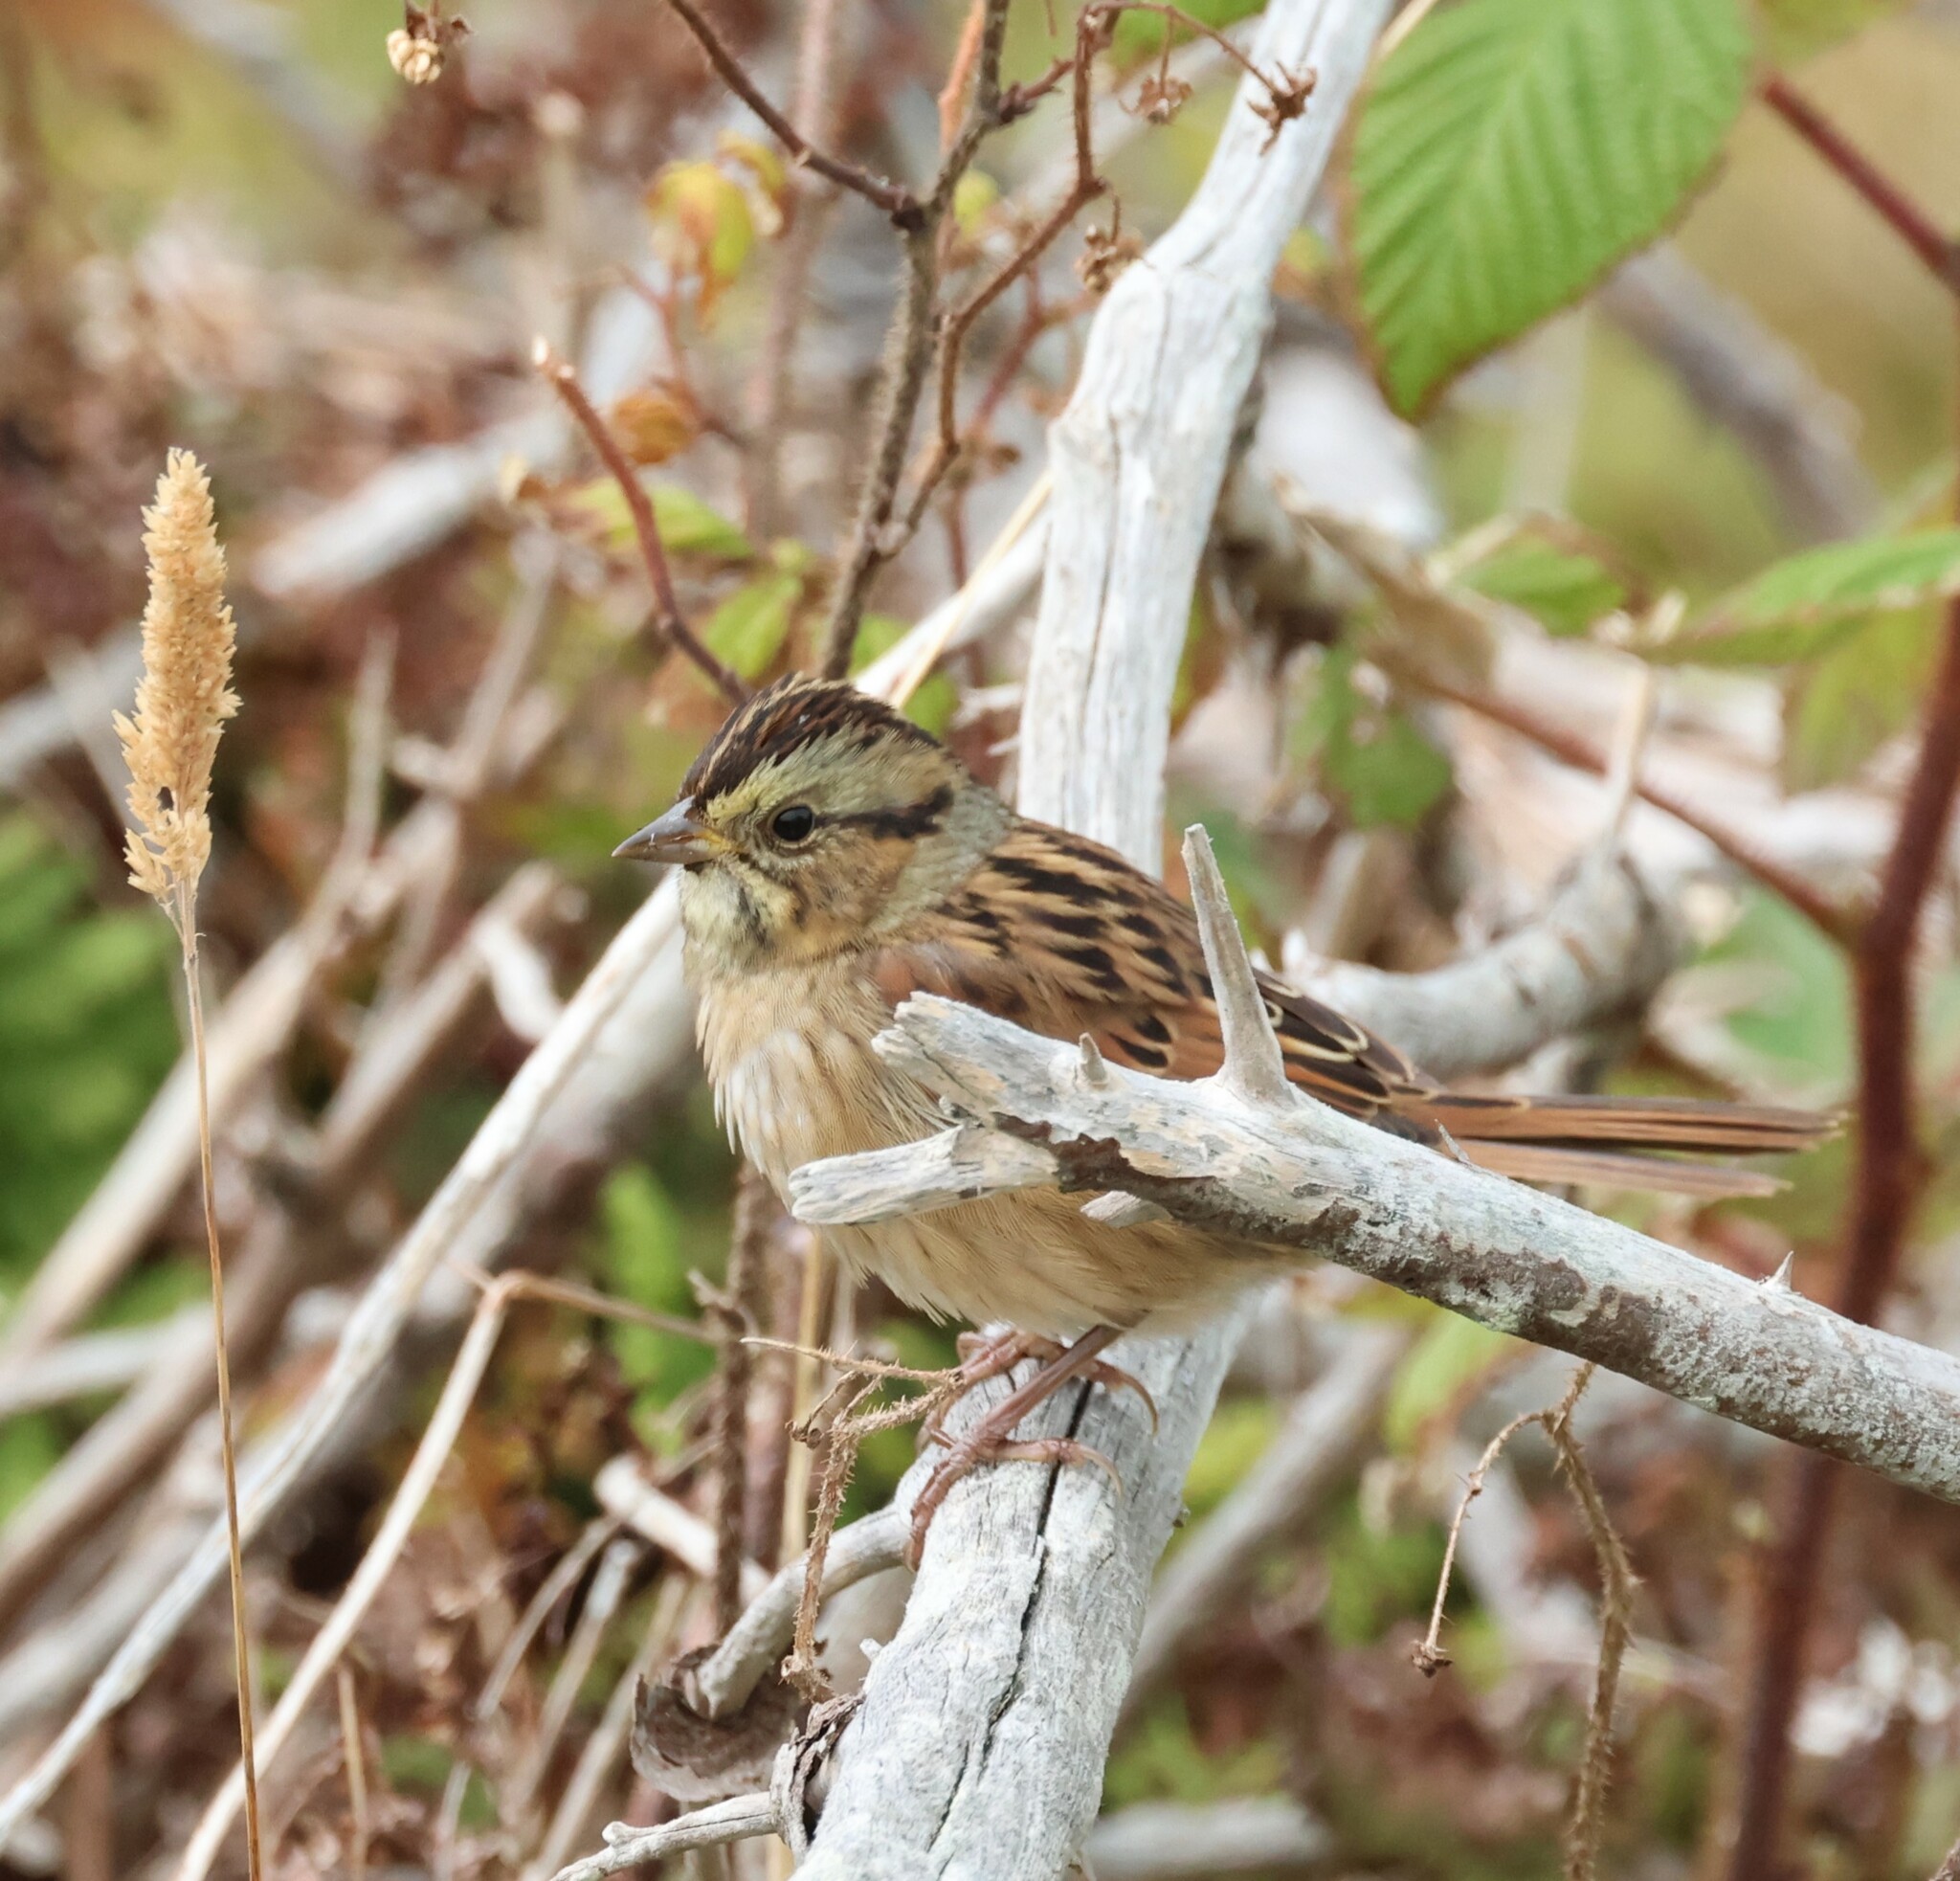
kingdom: Animalia
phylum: Chordata
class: Aves
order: Passeriformes
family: Passerellidae
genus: Melospiza
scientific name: Melospiza georgiana
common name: Swamp sparrow
